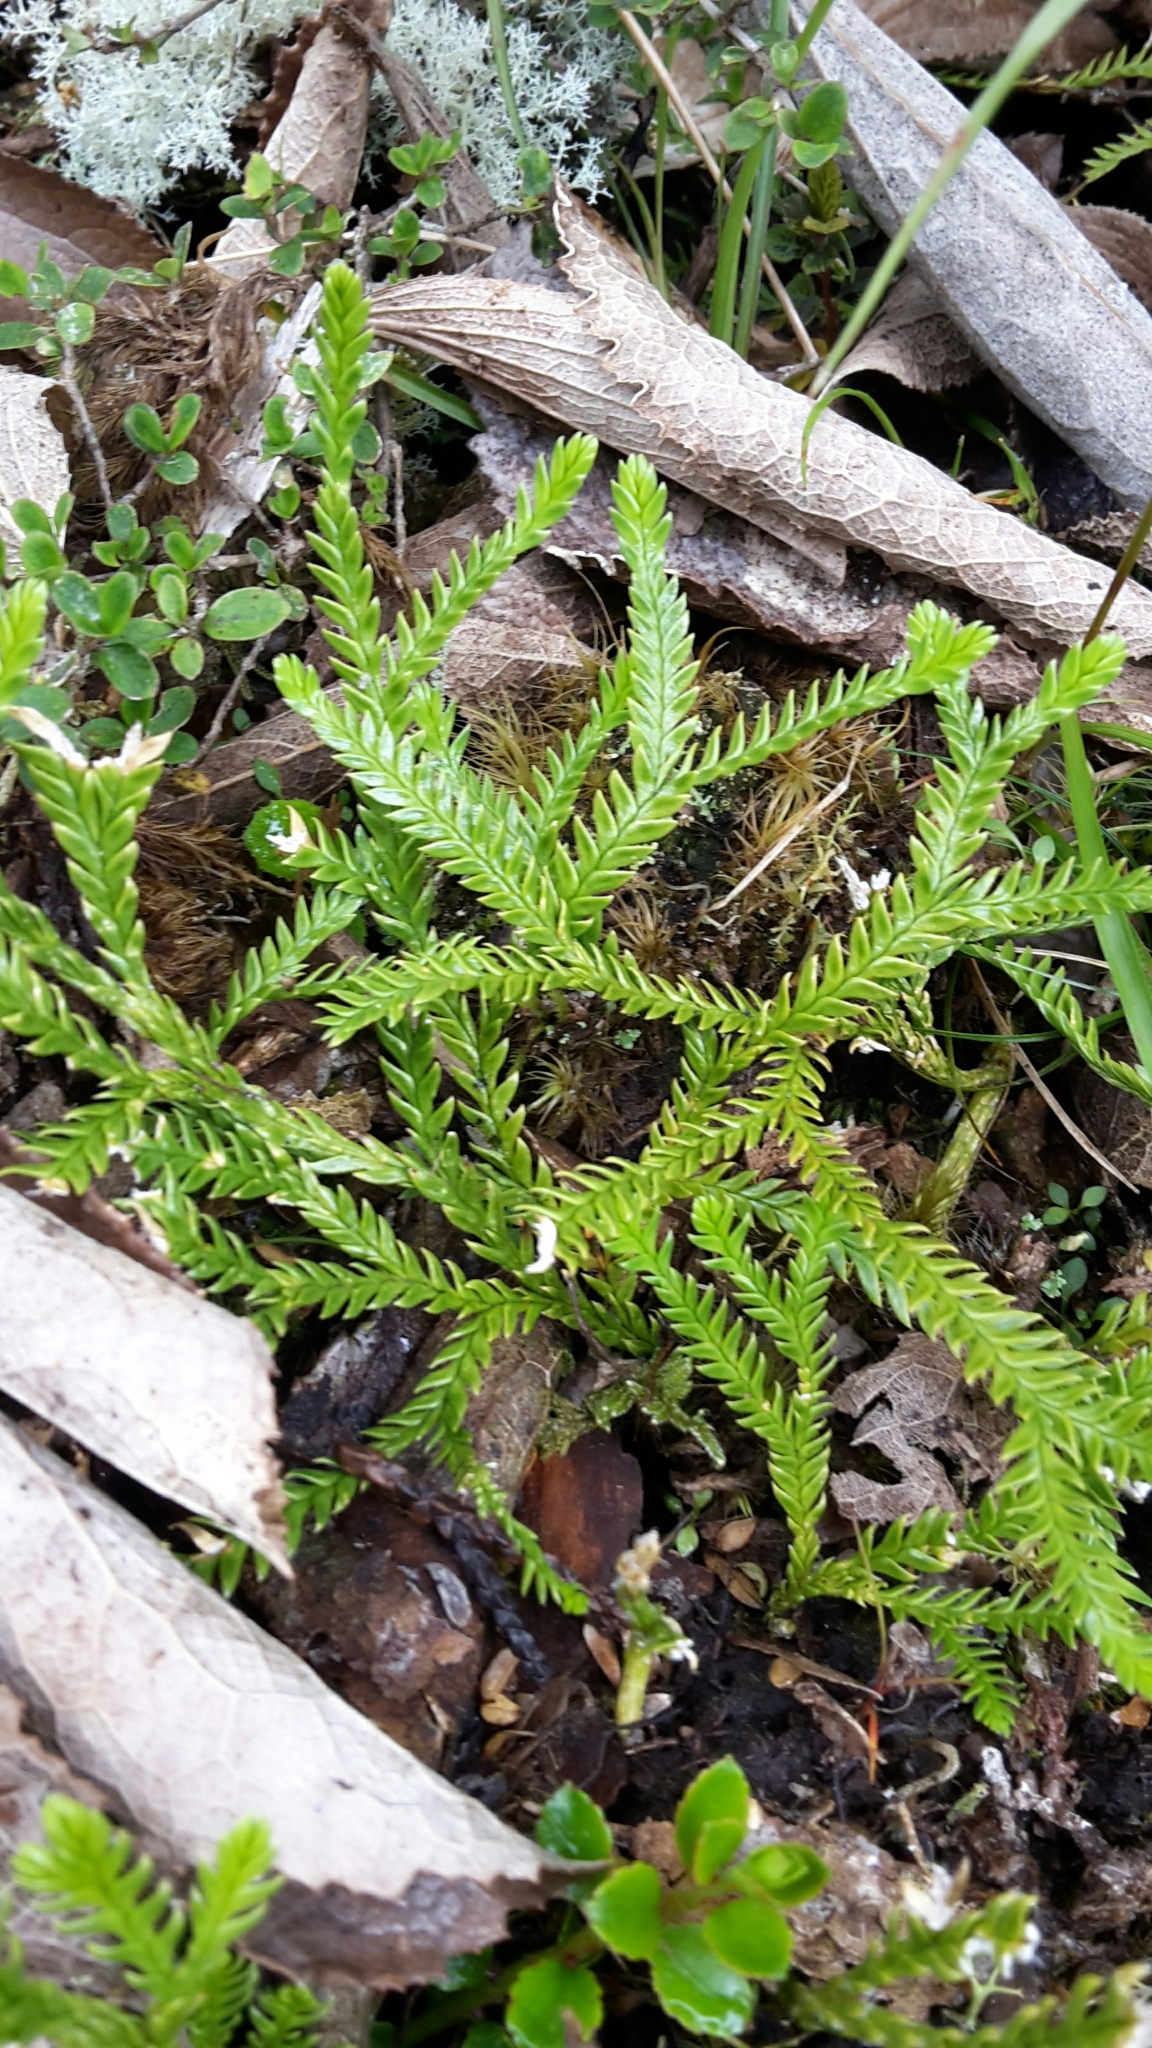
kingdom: Plantae
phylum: Tracheophyta
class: Lycopodiopsida
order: Lycopodiales
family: Lycopodiaceae
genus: Diphasium
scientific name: Diphasium scariosum
